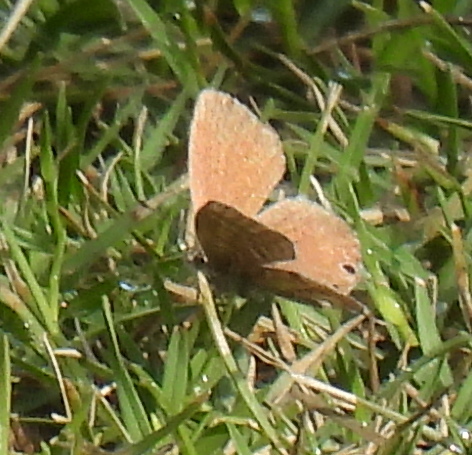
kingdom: Animalia
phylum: Arthropoda
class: Insecta
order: Lepidoptera
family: Lycaenidae
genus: Cacyreus
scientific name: Cacyreus marshalli
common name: Geranium bronze
